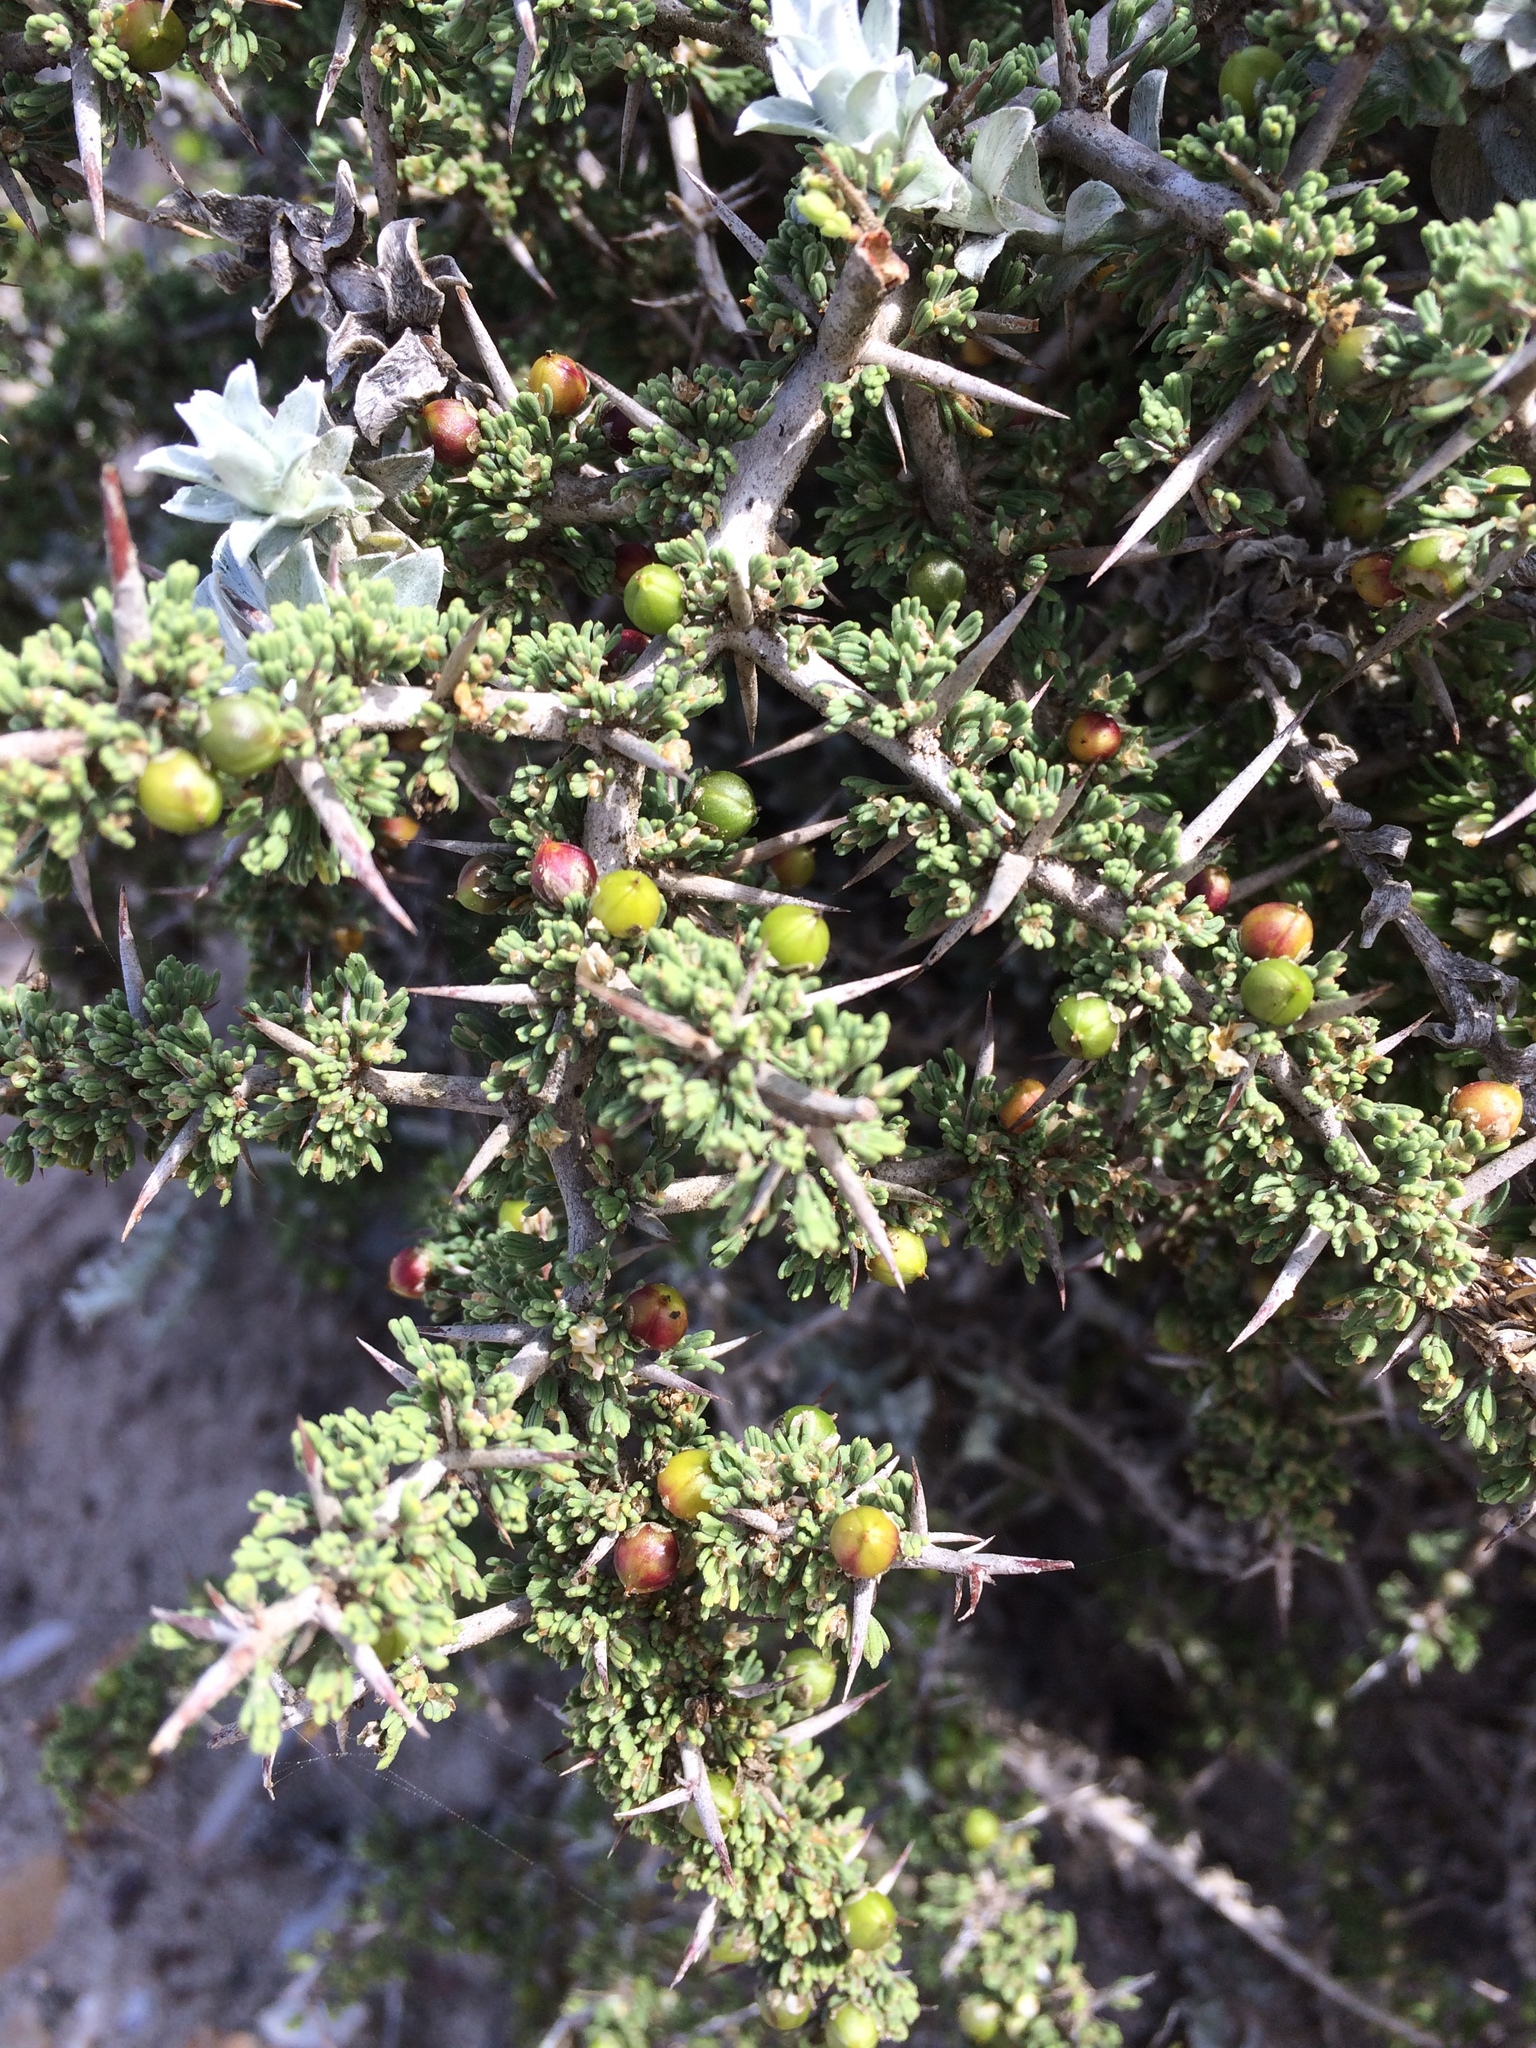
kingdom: Plantae
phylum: Tracheophyta
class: Liliopsida
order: Asparagales
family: Asparagaceae
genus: Asparagus
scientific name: Asparagus capensis
